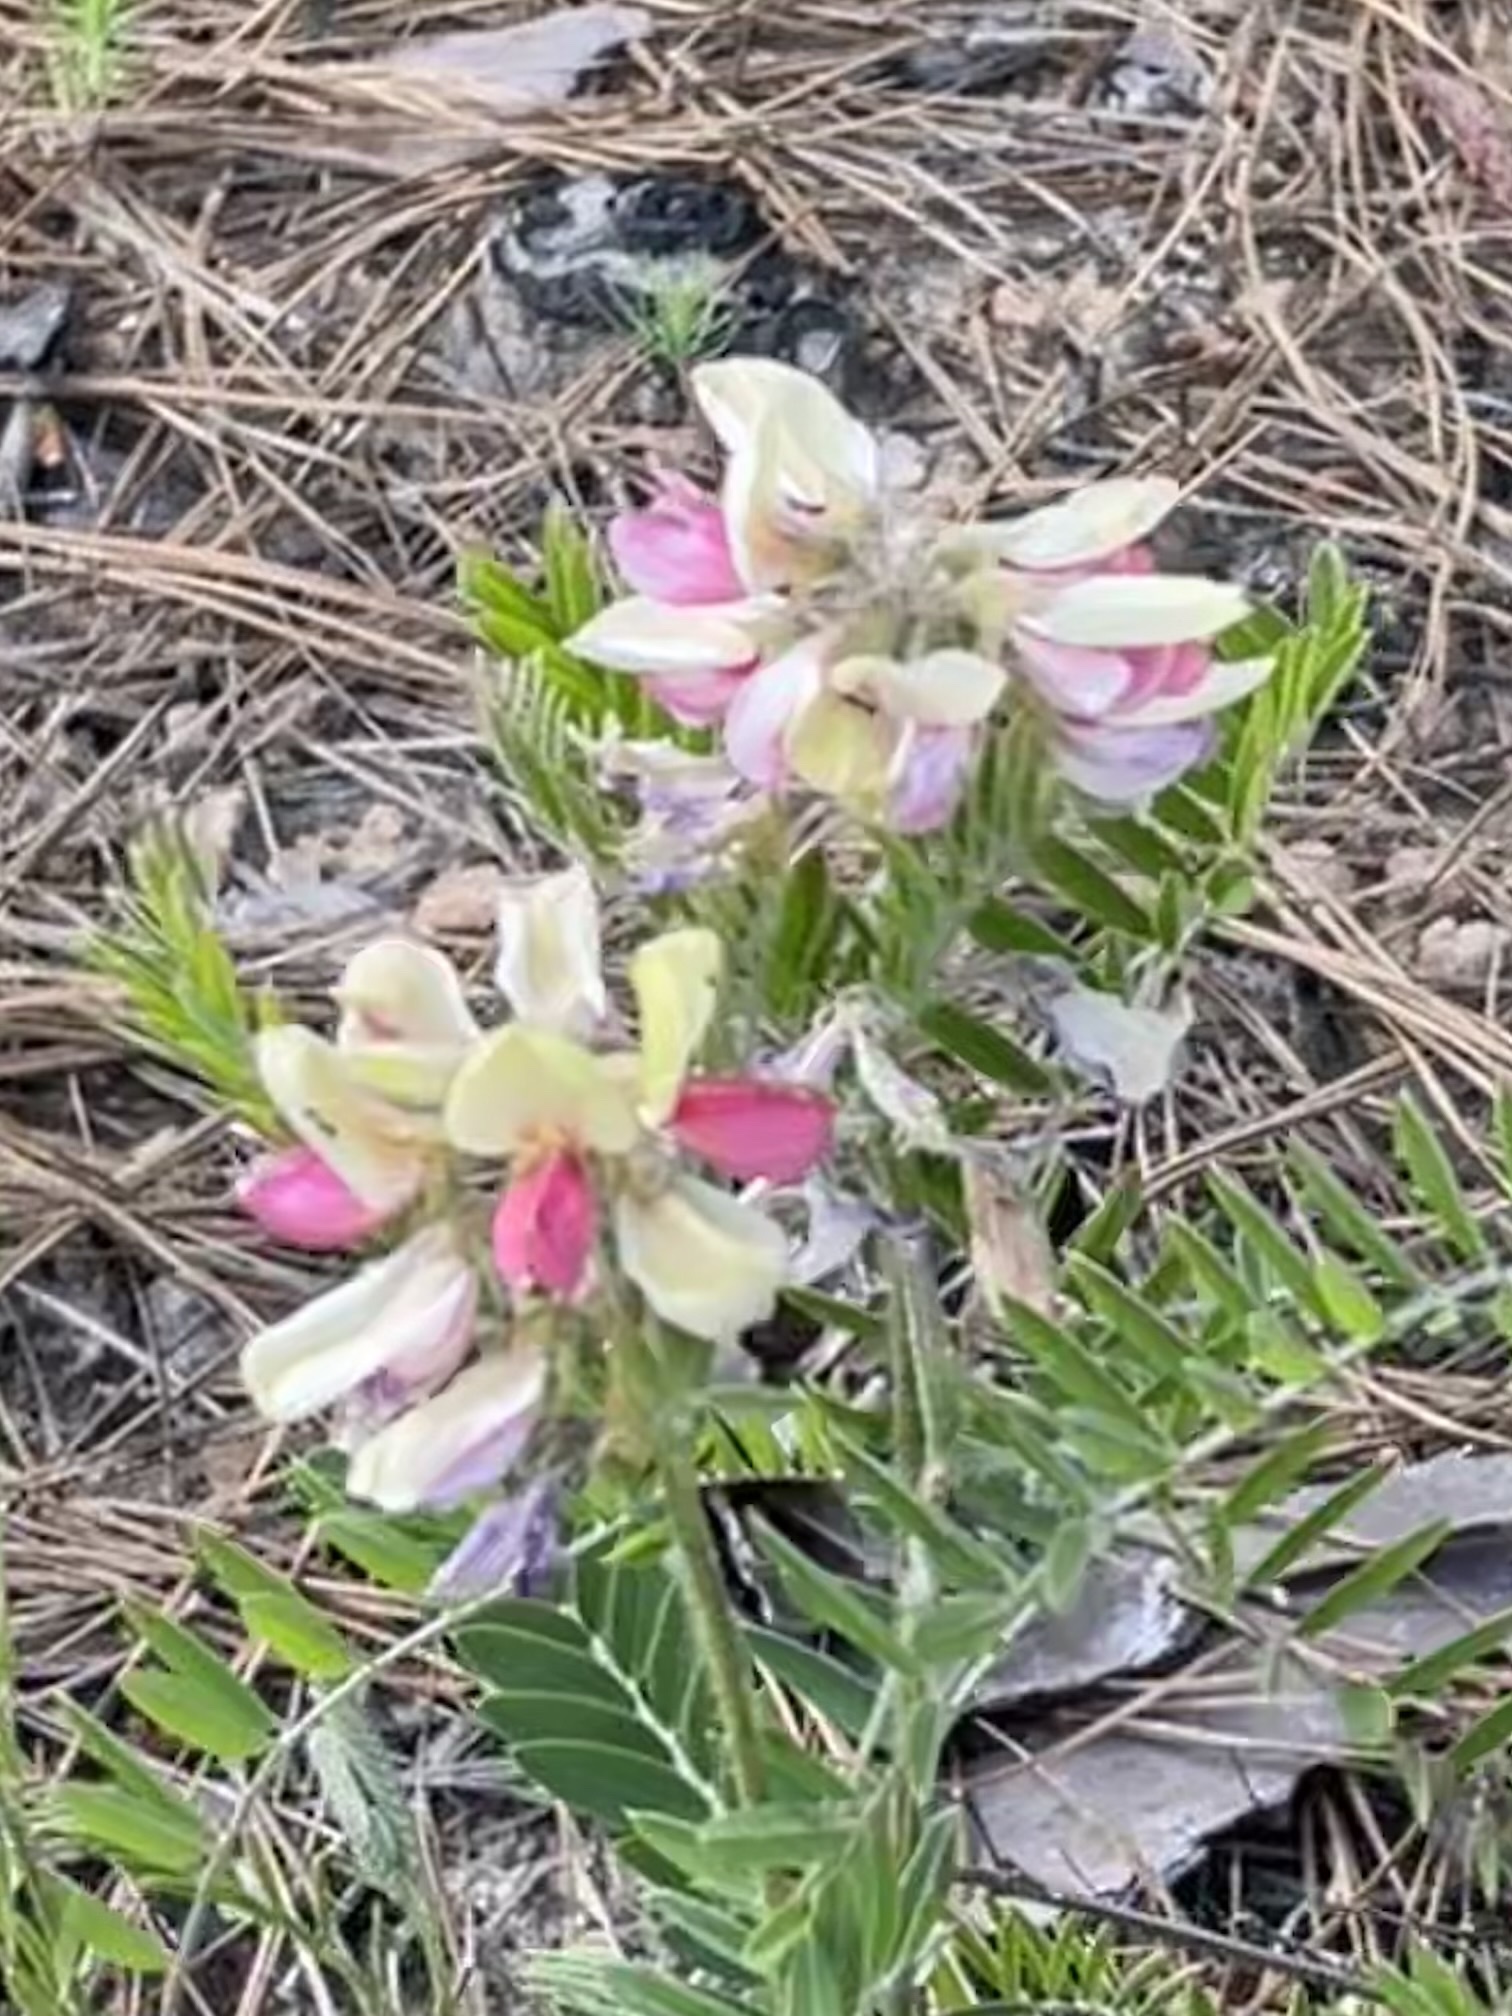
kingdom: Plantae
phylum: Tracheophyta
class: Magnoliopsida
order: Fabales
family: Fabaceae
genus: Tephrosia
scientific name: Tephrosia virginiana
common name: Rabbit-pea
